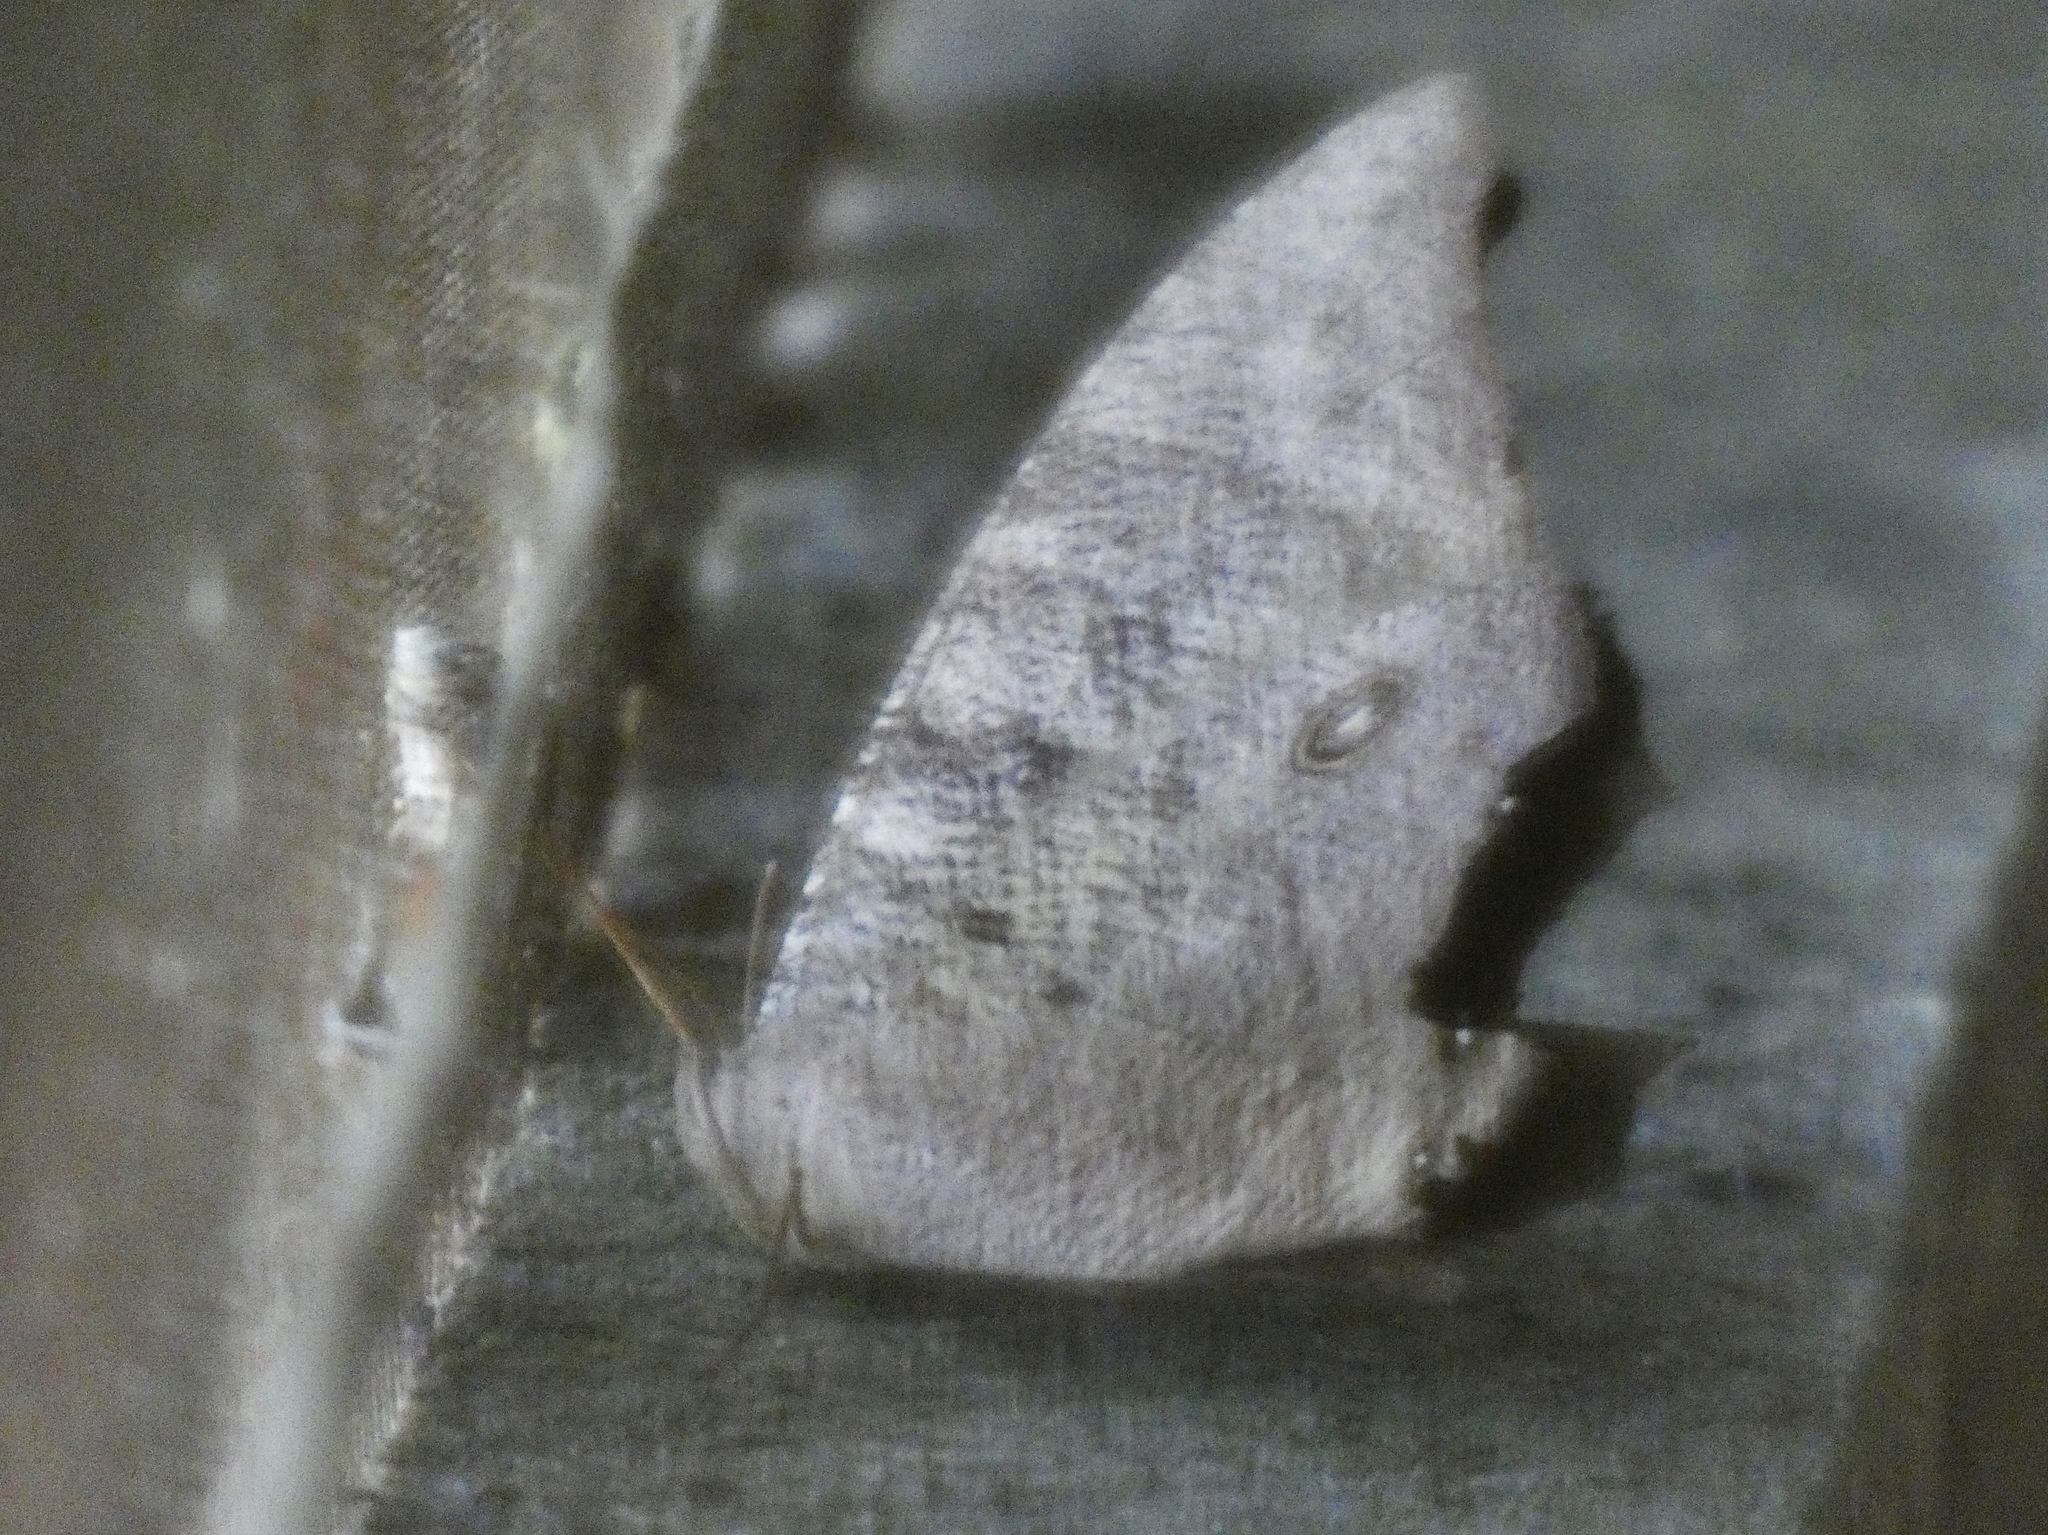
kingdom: Animalia
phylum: Arthropoda
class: Insecta
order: Lepidoptera
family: Nymphalidae
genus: Melanitis
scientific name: Melanitis leda
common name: Twilight brown
